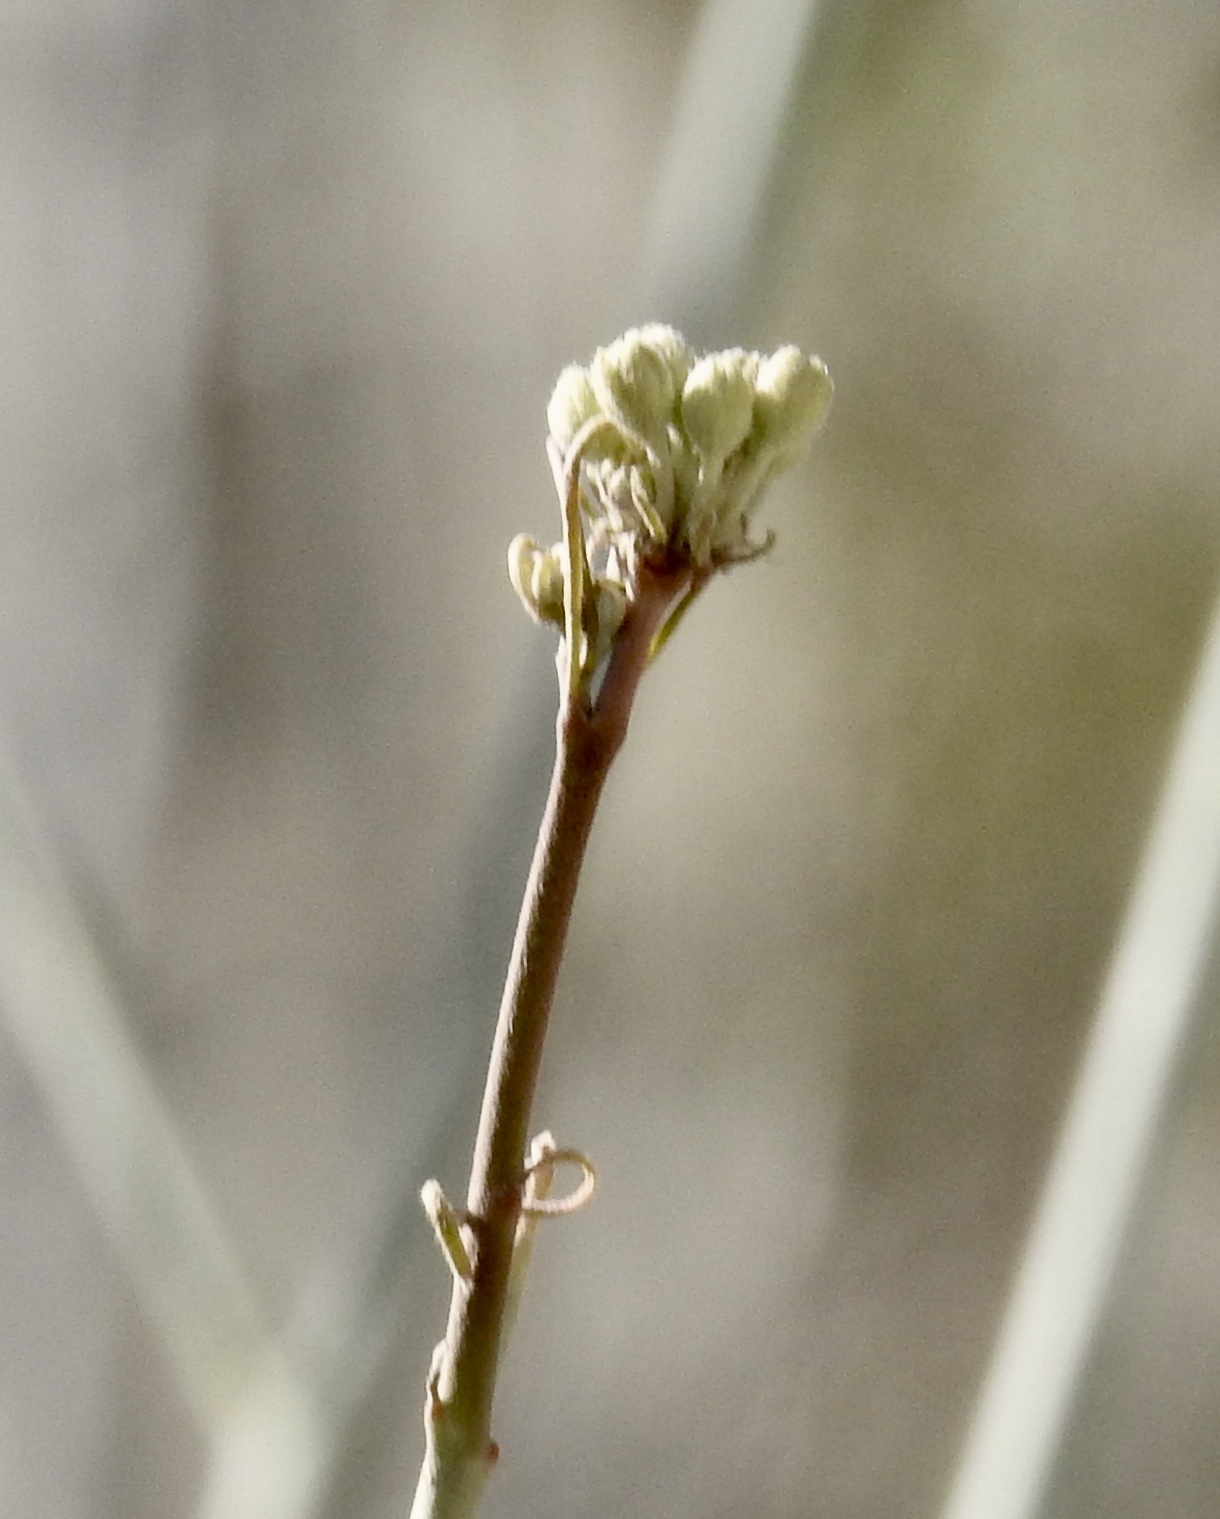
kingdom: Plantae
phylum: Tracheophyta
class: Magnoliopsida
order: Gentianales
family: Apocynaceae
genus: Asclepias
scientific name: Asclepias albicans
